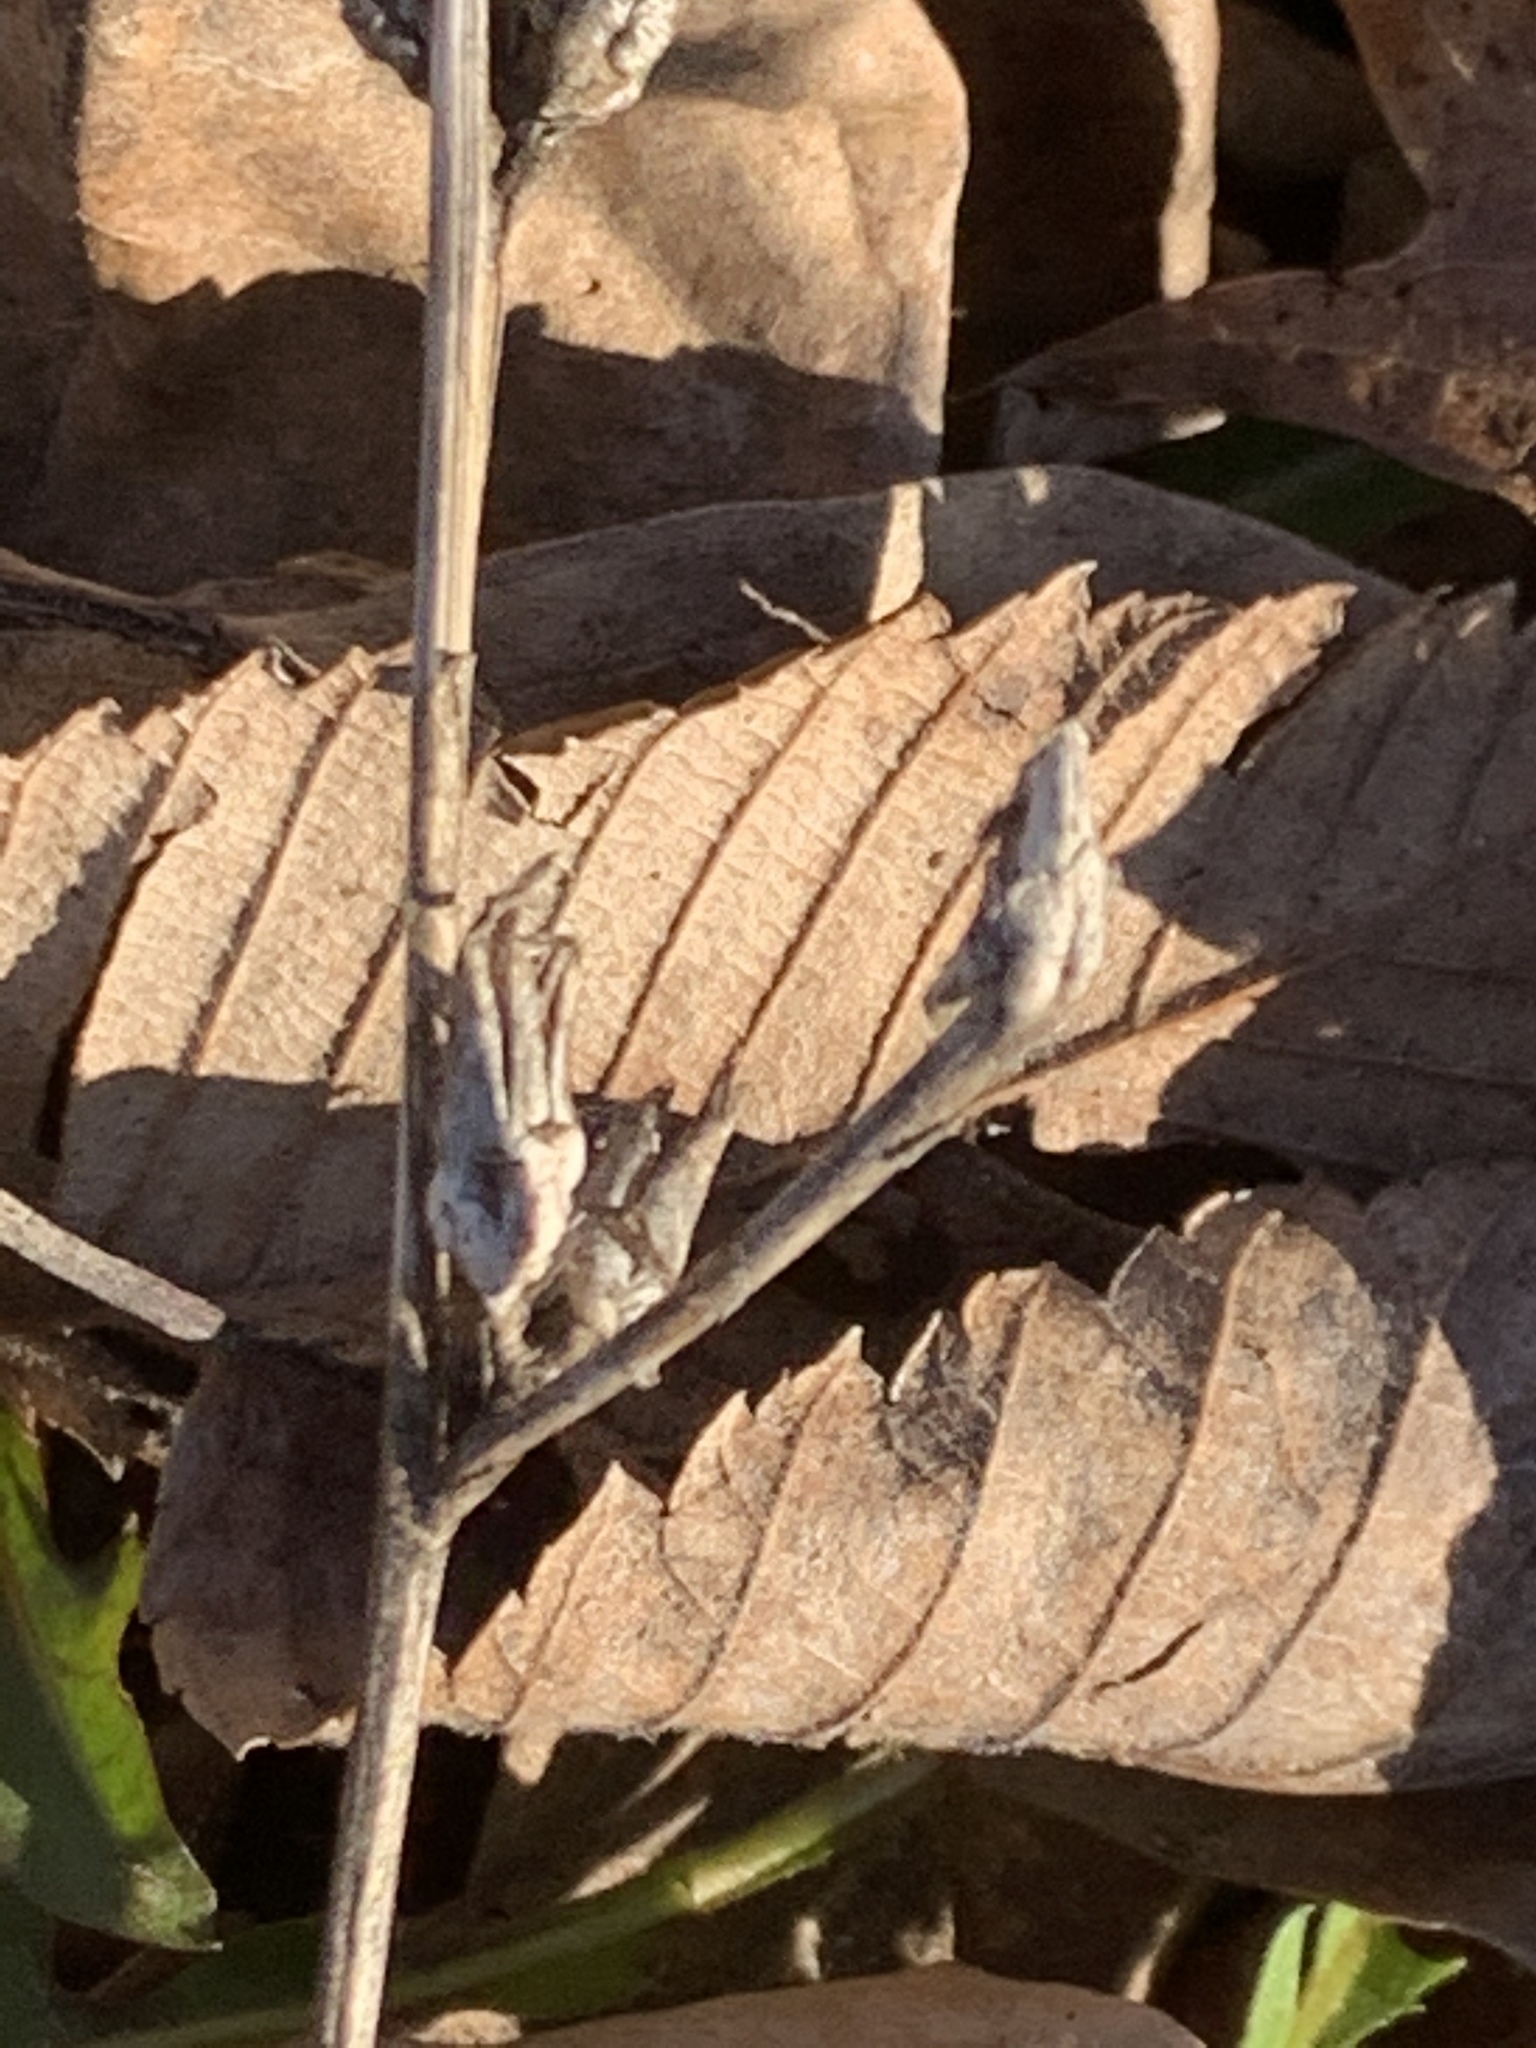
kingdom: Plantae
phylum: Tracheophyta
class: Magnoliopsida
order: Asterales
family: Asteraceae
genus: Cichorium
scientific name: Cichorium intybus
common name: Chicory
